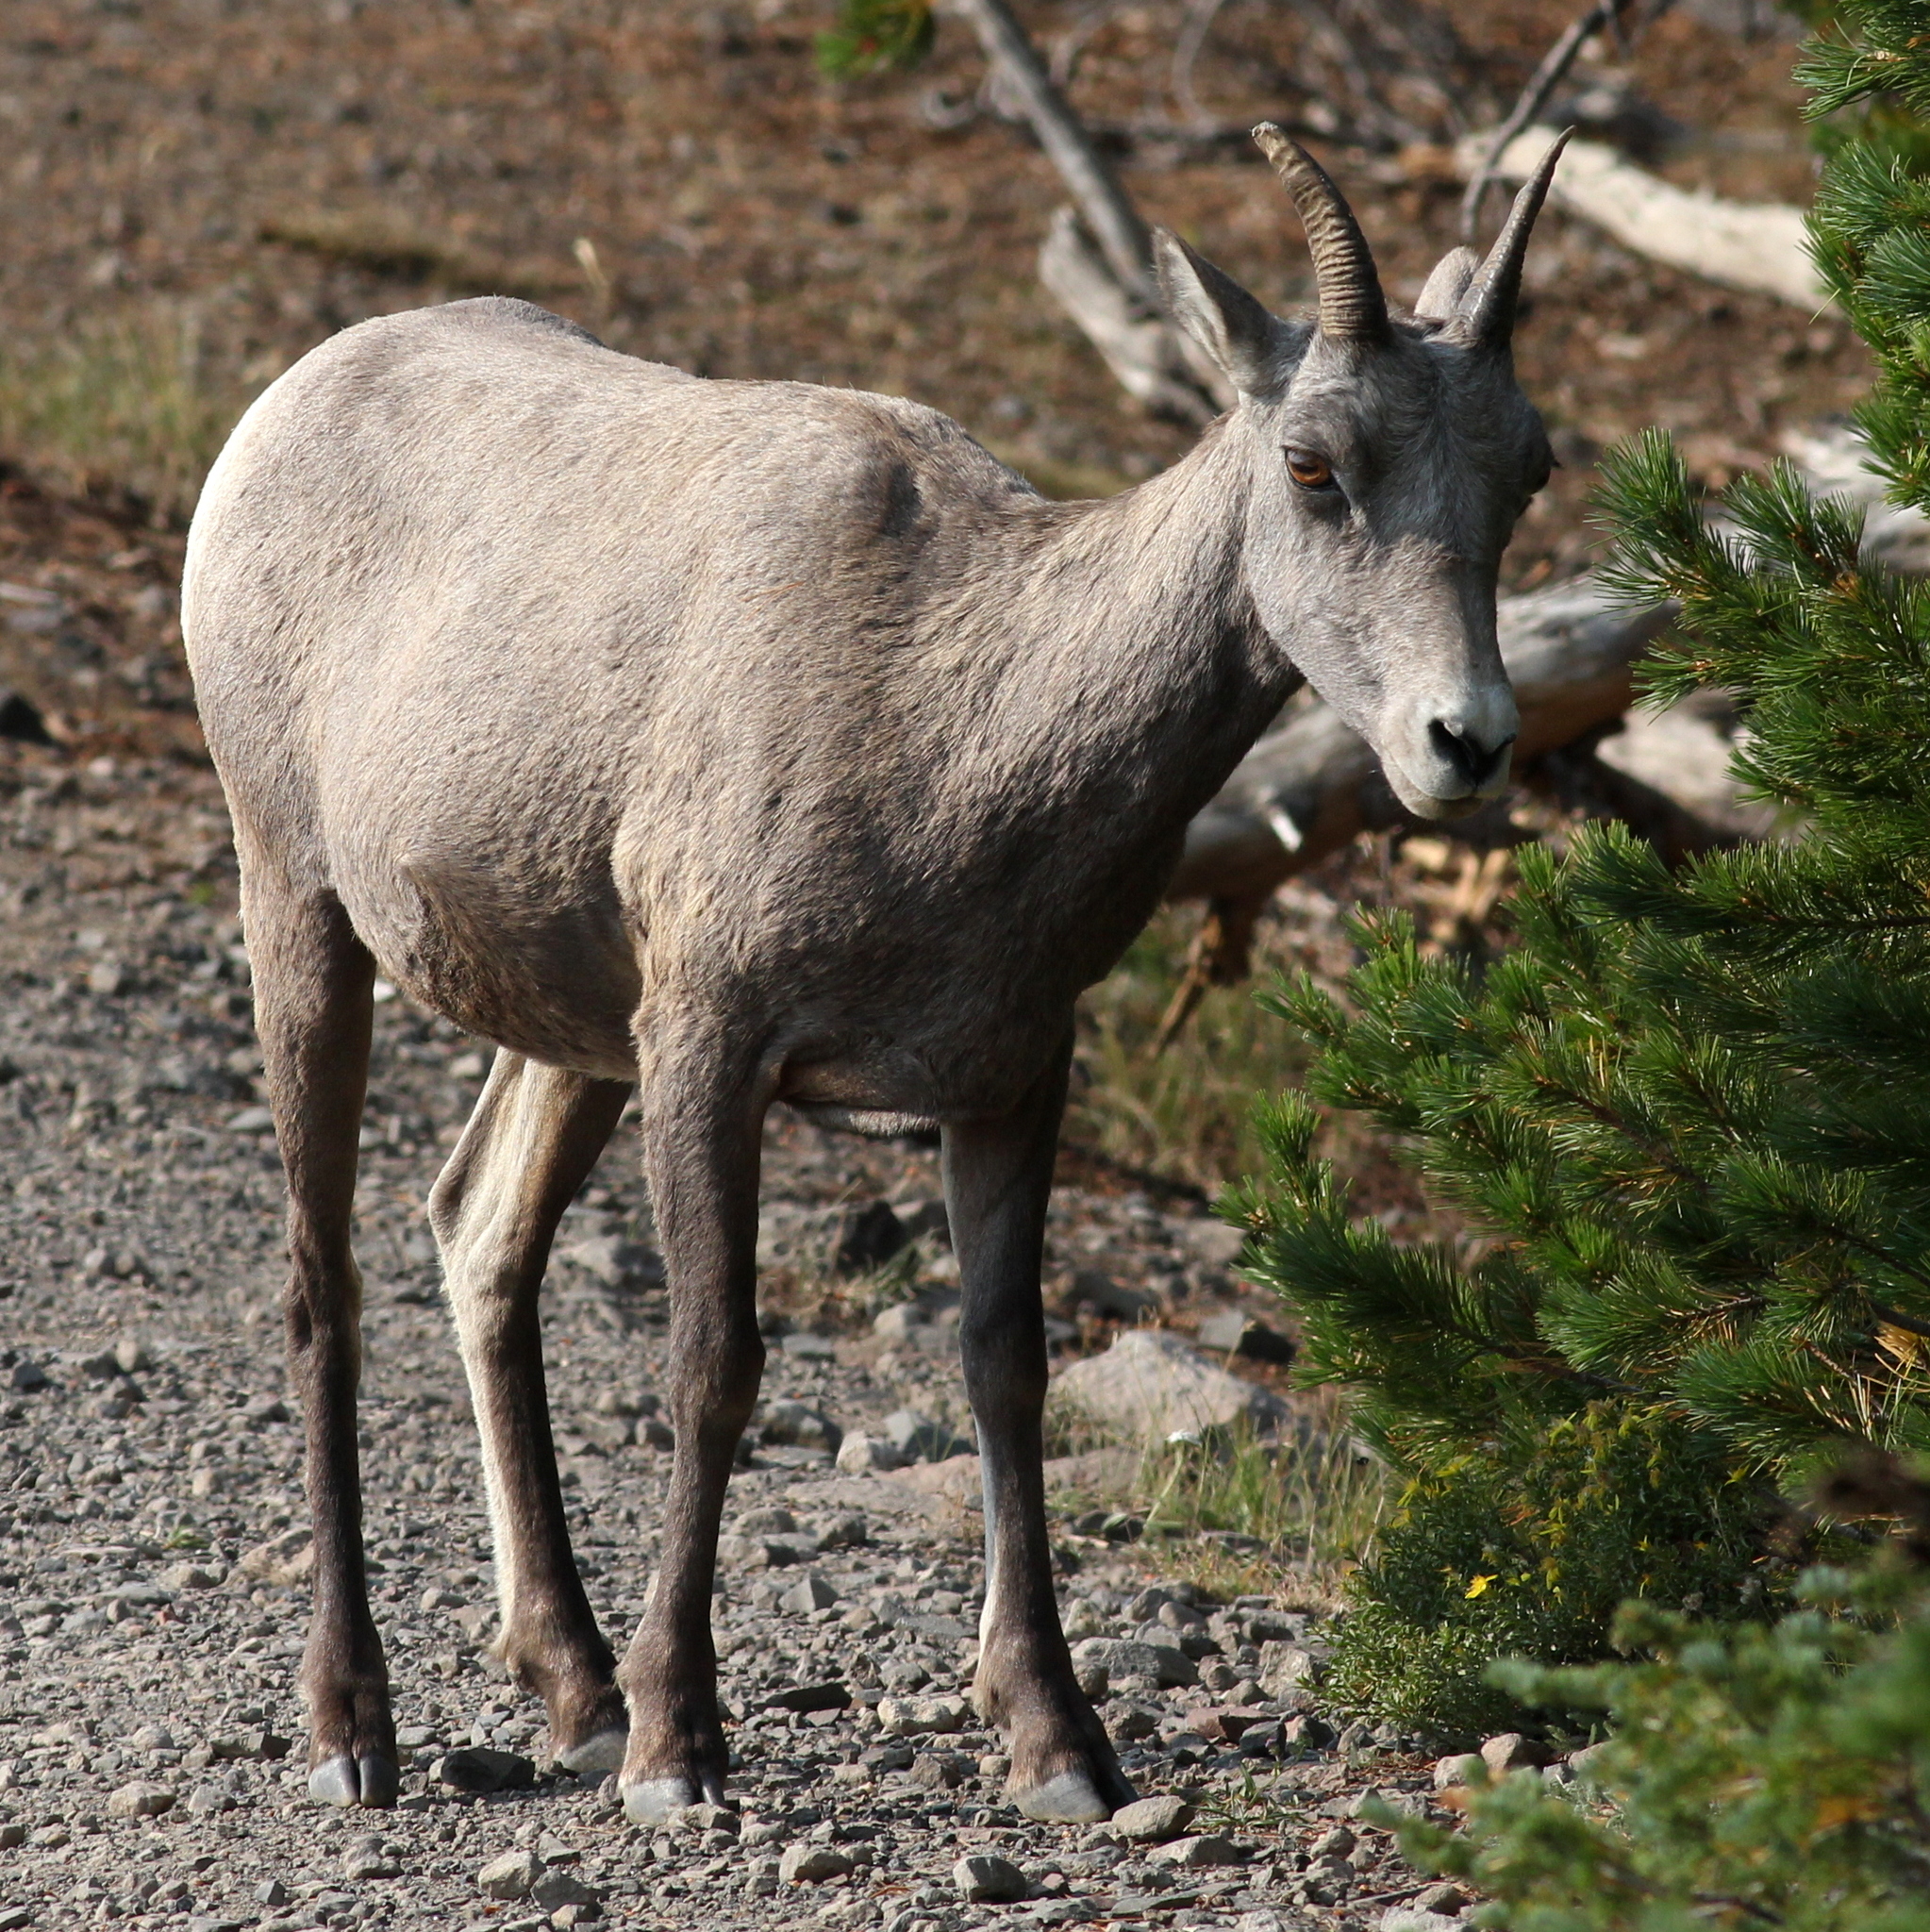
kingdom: Animalia
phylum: Chordata
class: Mammalia
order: Artiodactyla
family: Bovidae
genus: Ovis
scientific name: Ovis canadensis
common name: Bighorn sheep
